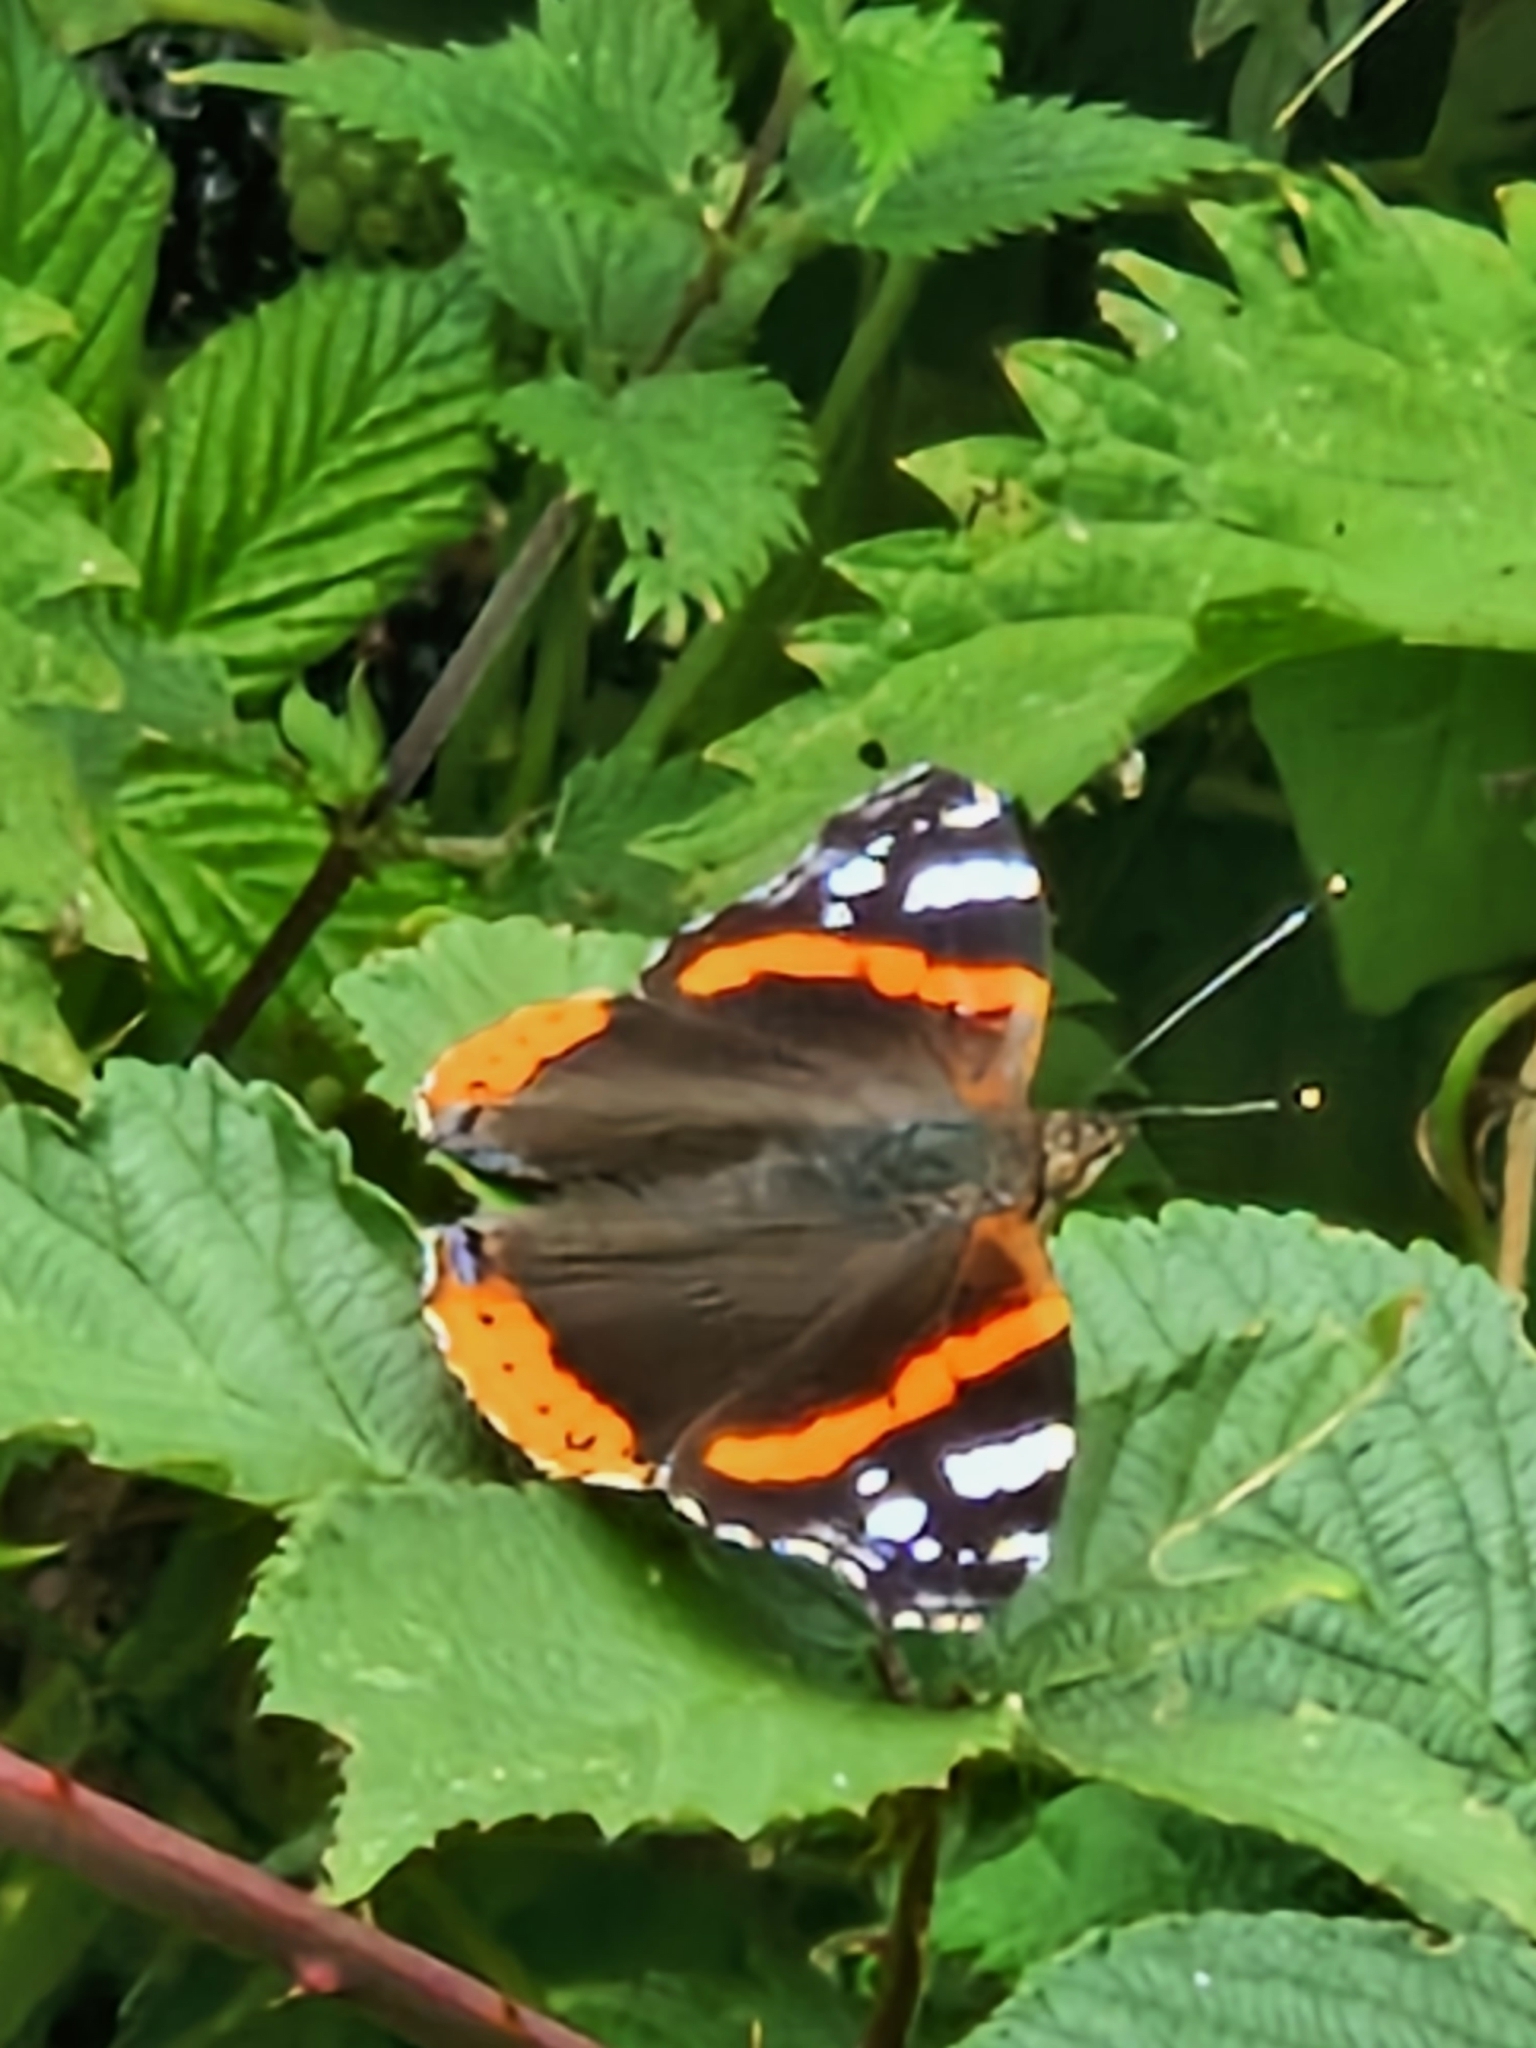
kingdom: Animalia
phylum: Arthropoda
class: Insecta
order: Lepidoptera
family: Nymphalidae
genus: Vanessa
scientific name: Vanessa atalanta
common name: Red admiral
